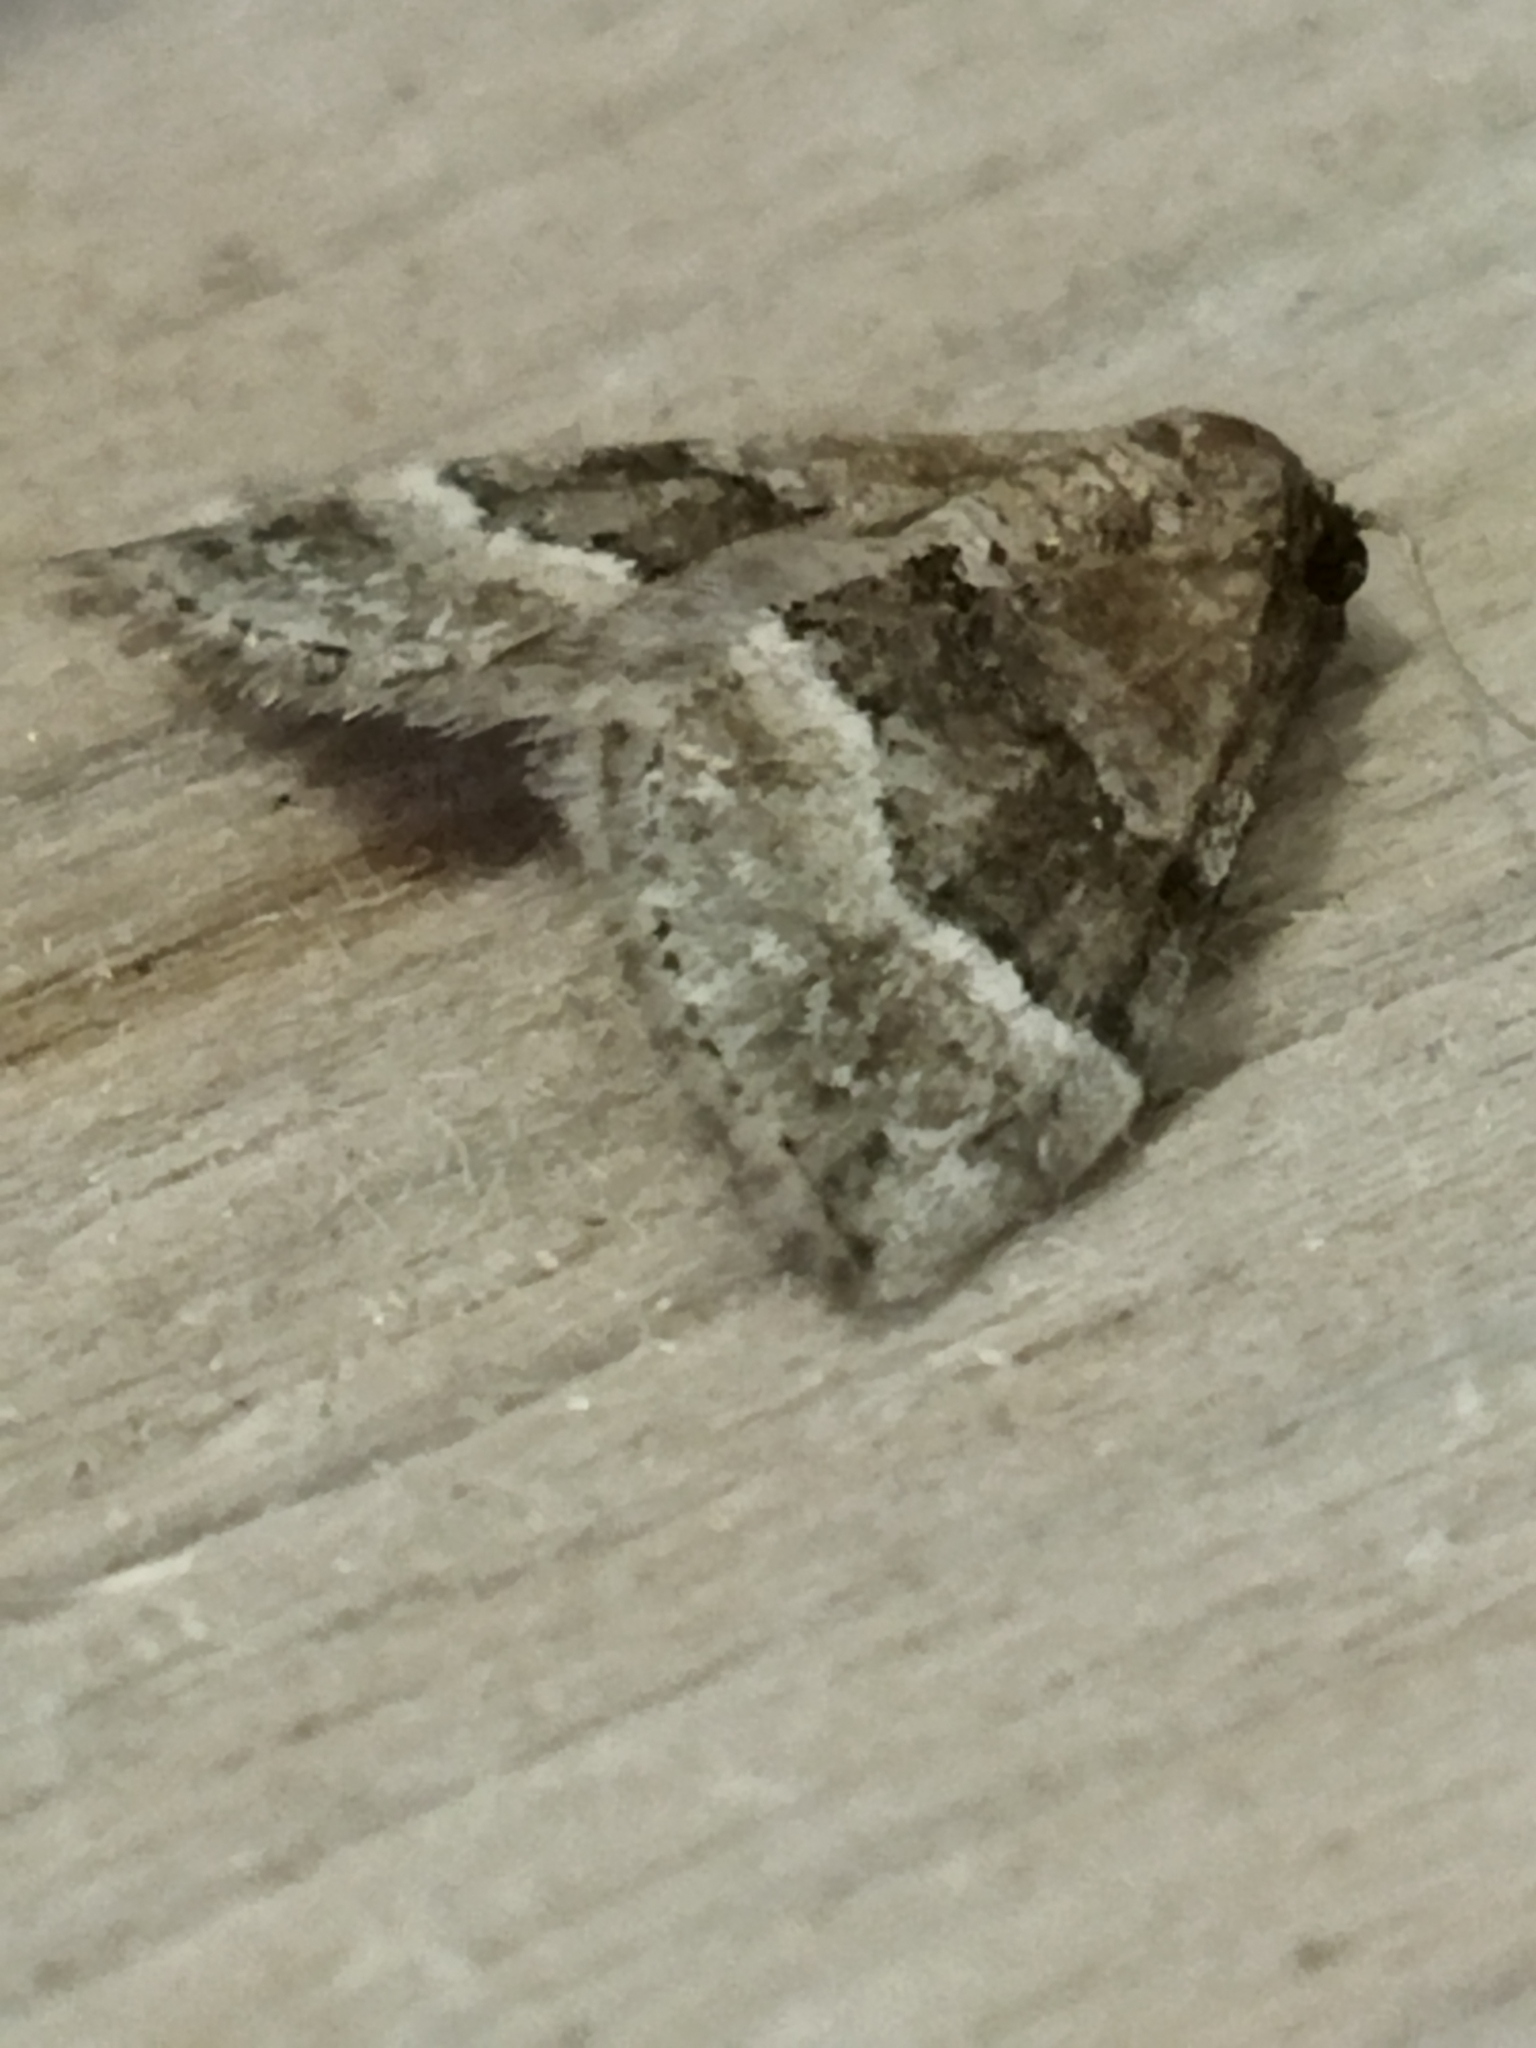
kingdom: Animalia
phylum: Arthropoda
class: Insecta
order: Lepidoptera
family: Geometridae
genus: Perizoma
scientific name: Perizoma bifaciata
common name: Barred rivulet
